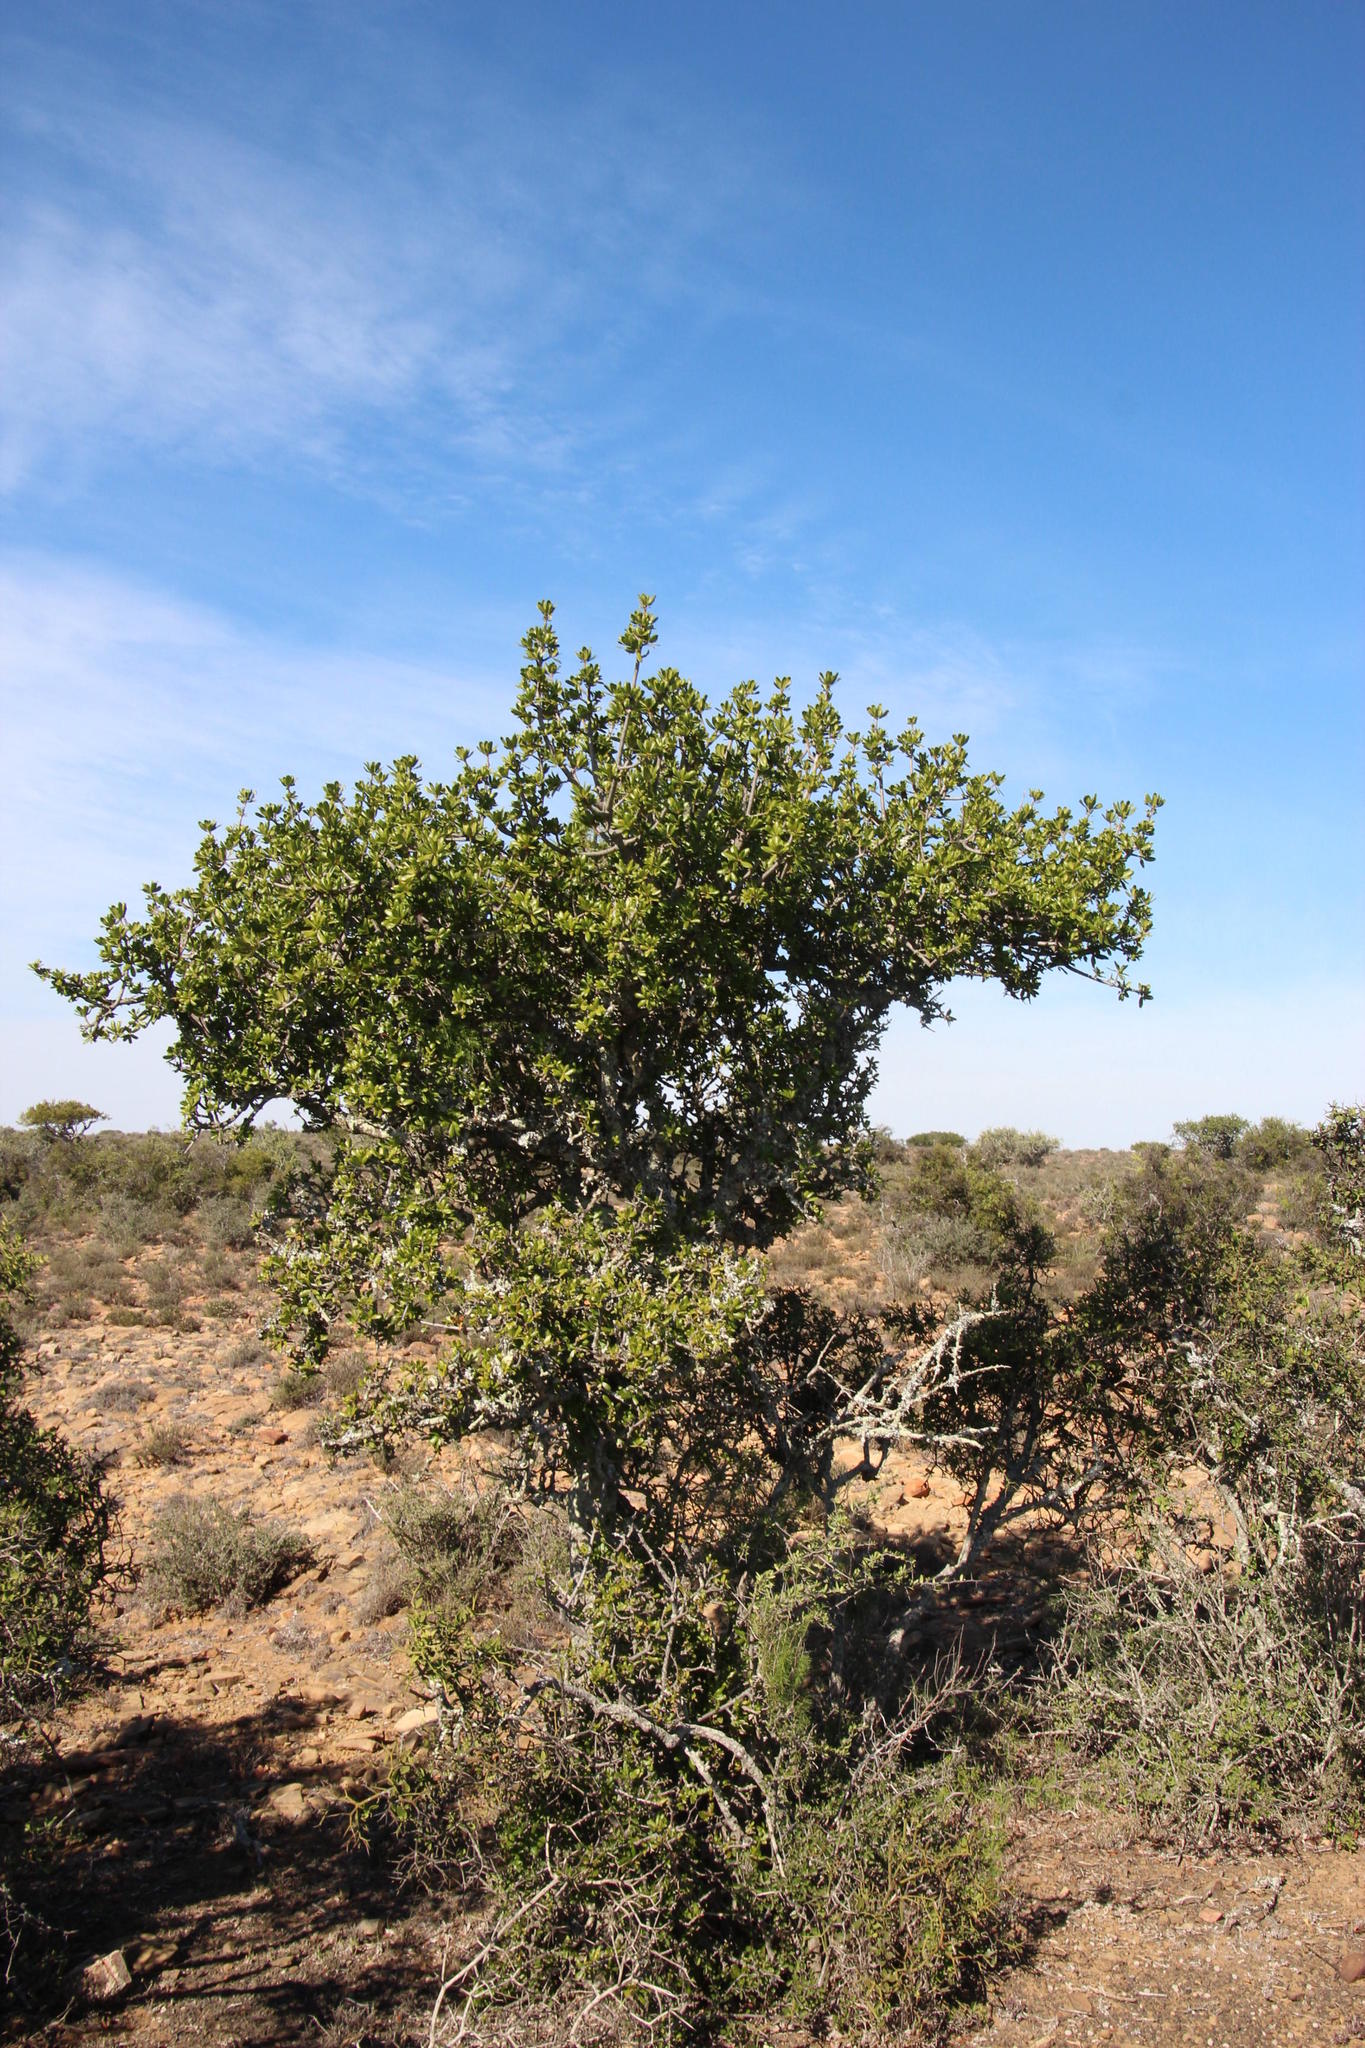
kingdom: Plantae
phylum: Tracheophyta
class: Magnoliopsida
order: Sapindales
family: Sapindaceae
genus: Pappea
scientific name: Pappea capensis
